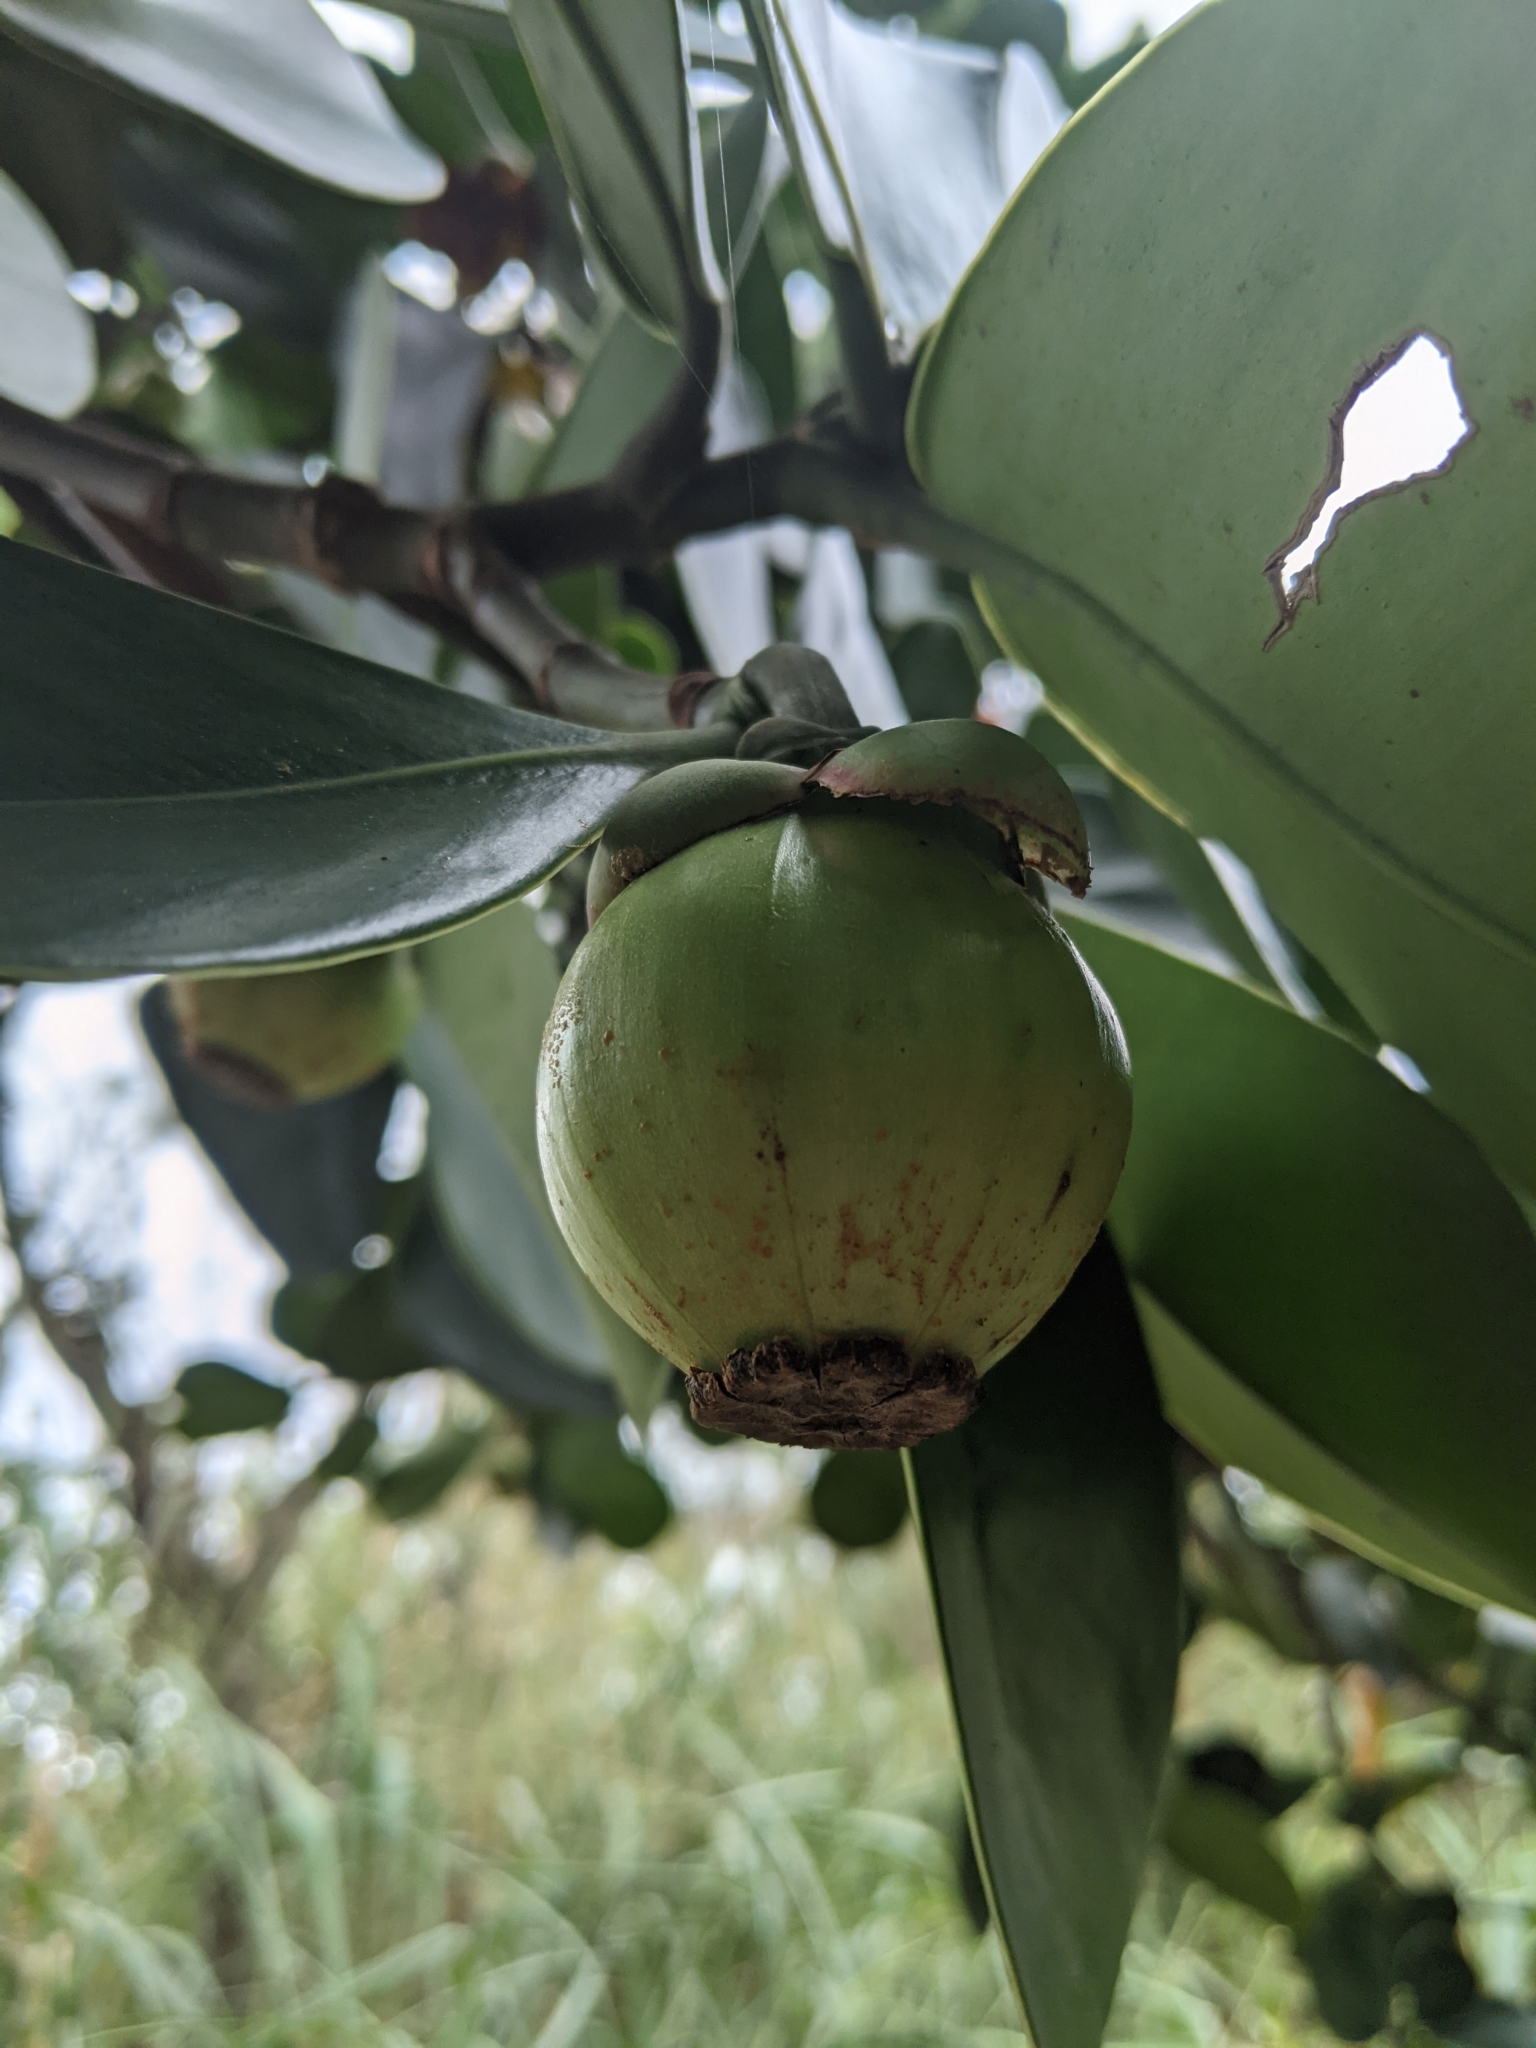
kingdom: Plantae
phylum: Tracheophyta
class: Magnoliopsida
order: Malpighiales
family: Clusiaceae
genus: Clusia
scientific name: Clusia rosea
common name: Scotch attorney
